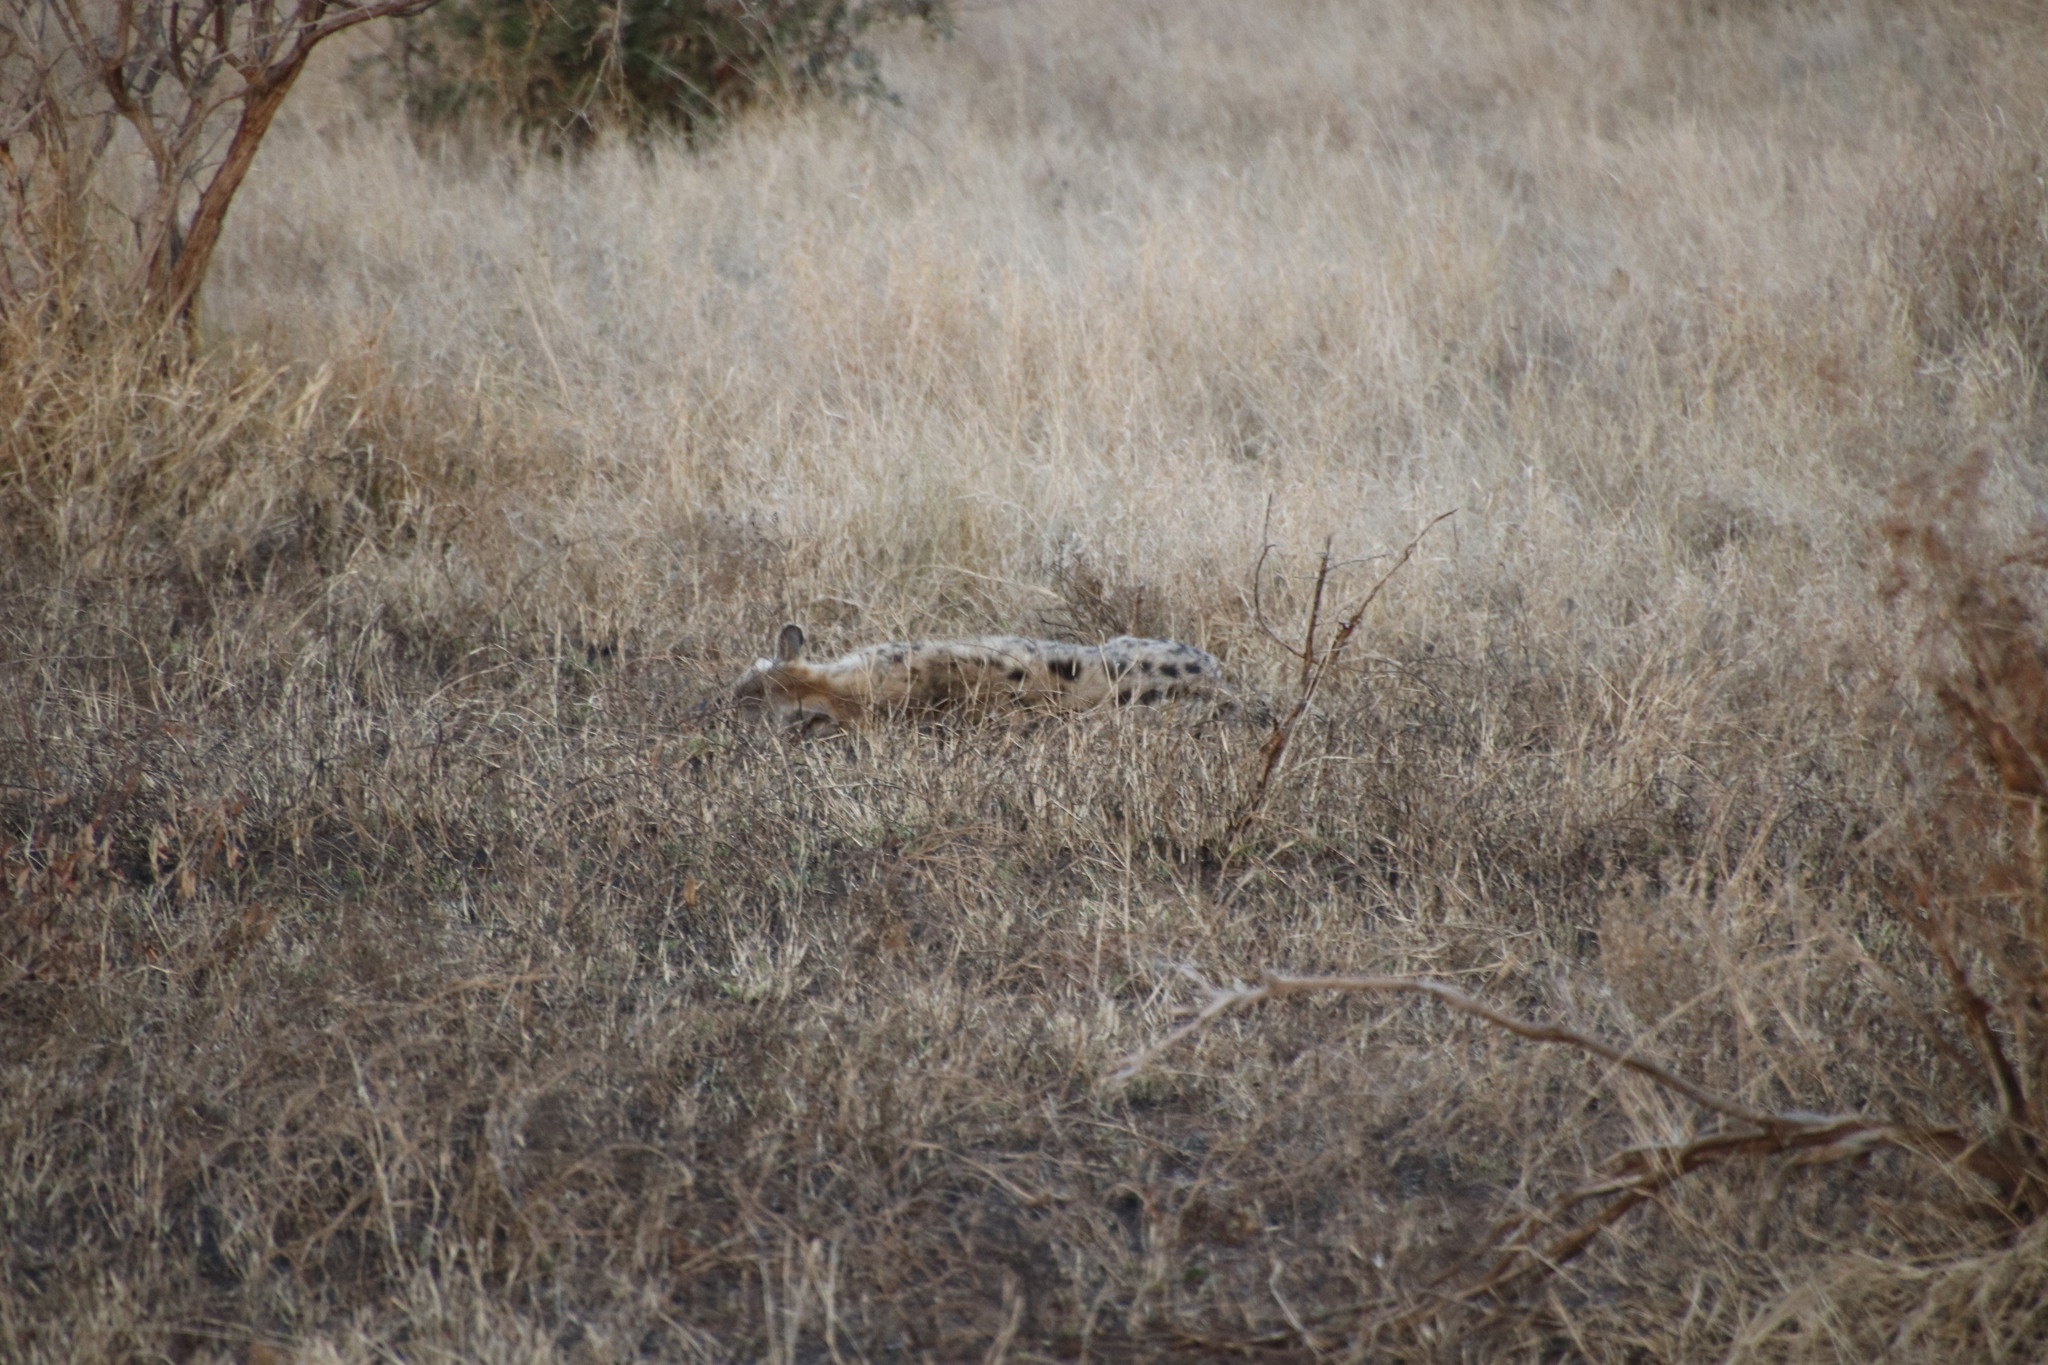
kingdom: Animalia
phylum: Chordata
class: Mammalia
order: Carnivora
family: Hyaenidae
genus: Crocuta
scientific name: Crocuta crocuta
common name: Spotted hyaena
